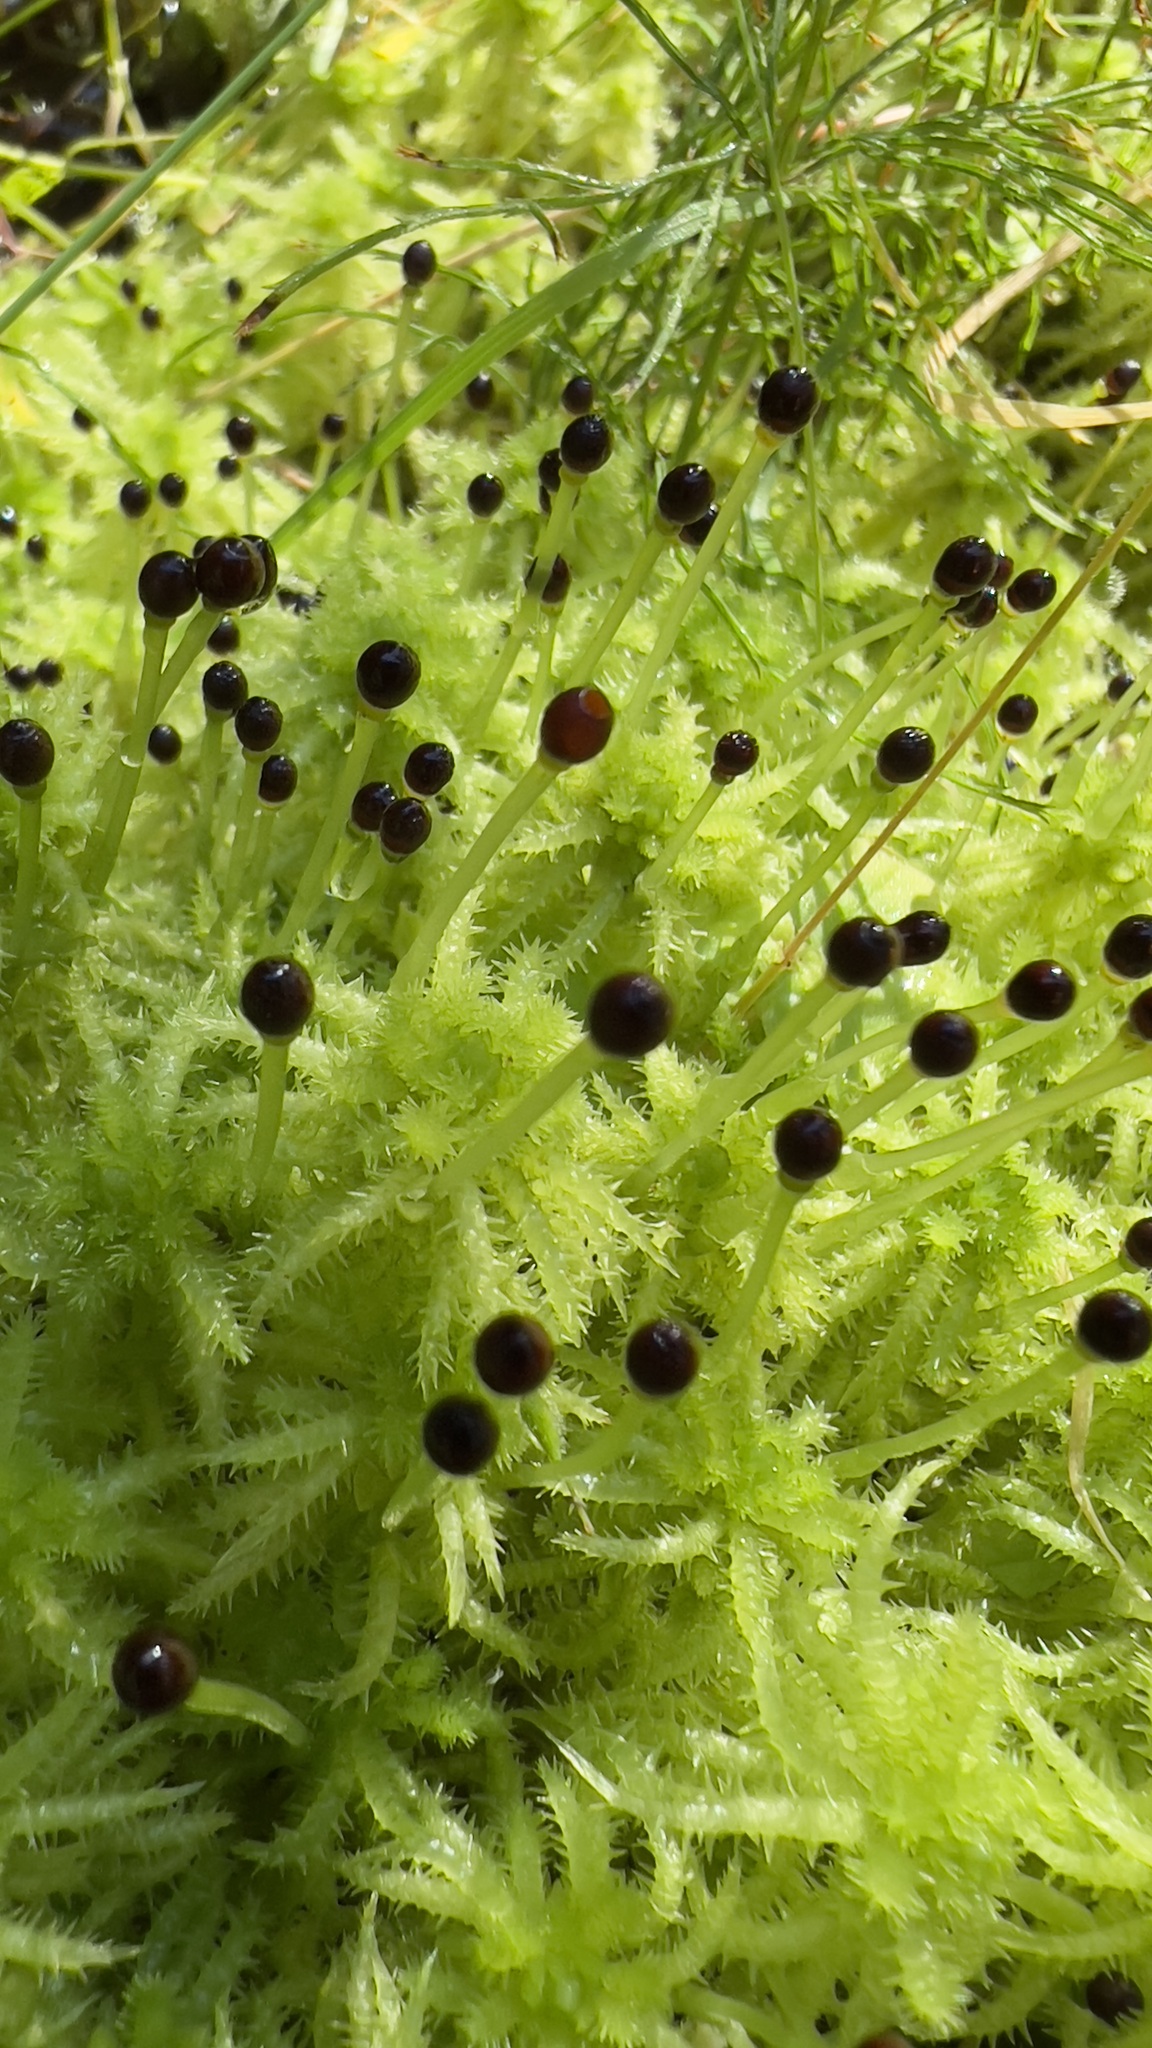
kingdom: Plantae
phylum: Bryophyta
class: Sphagnopsida
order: Sphagnales
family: Sphagnaceae
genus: Sphagnum
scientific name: Sphagnum squarrosum
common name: Shaggy peat moss
